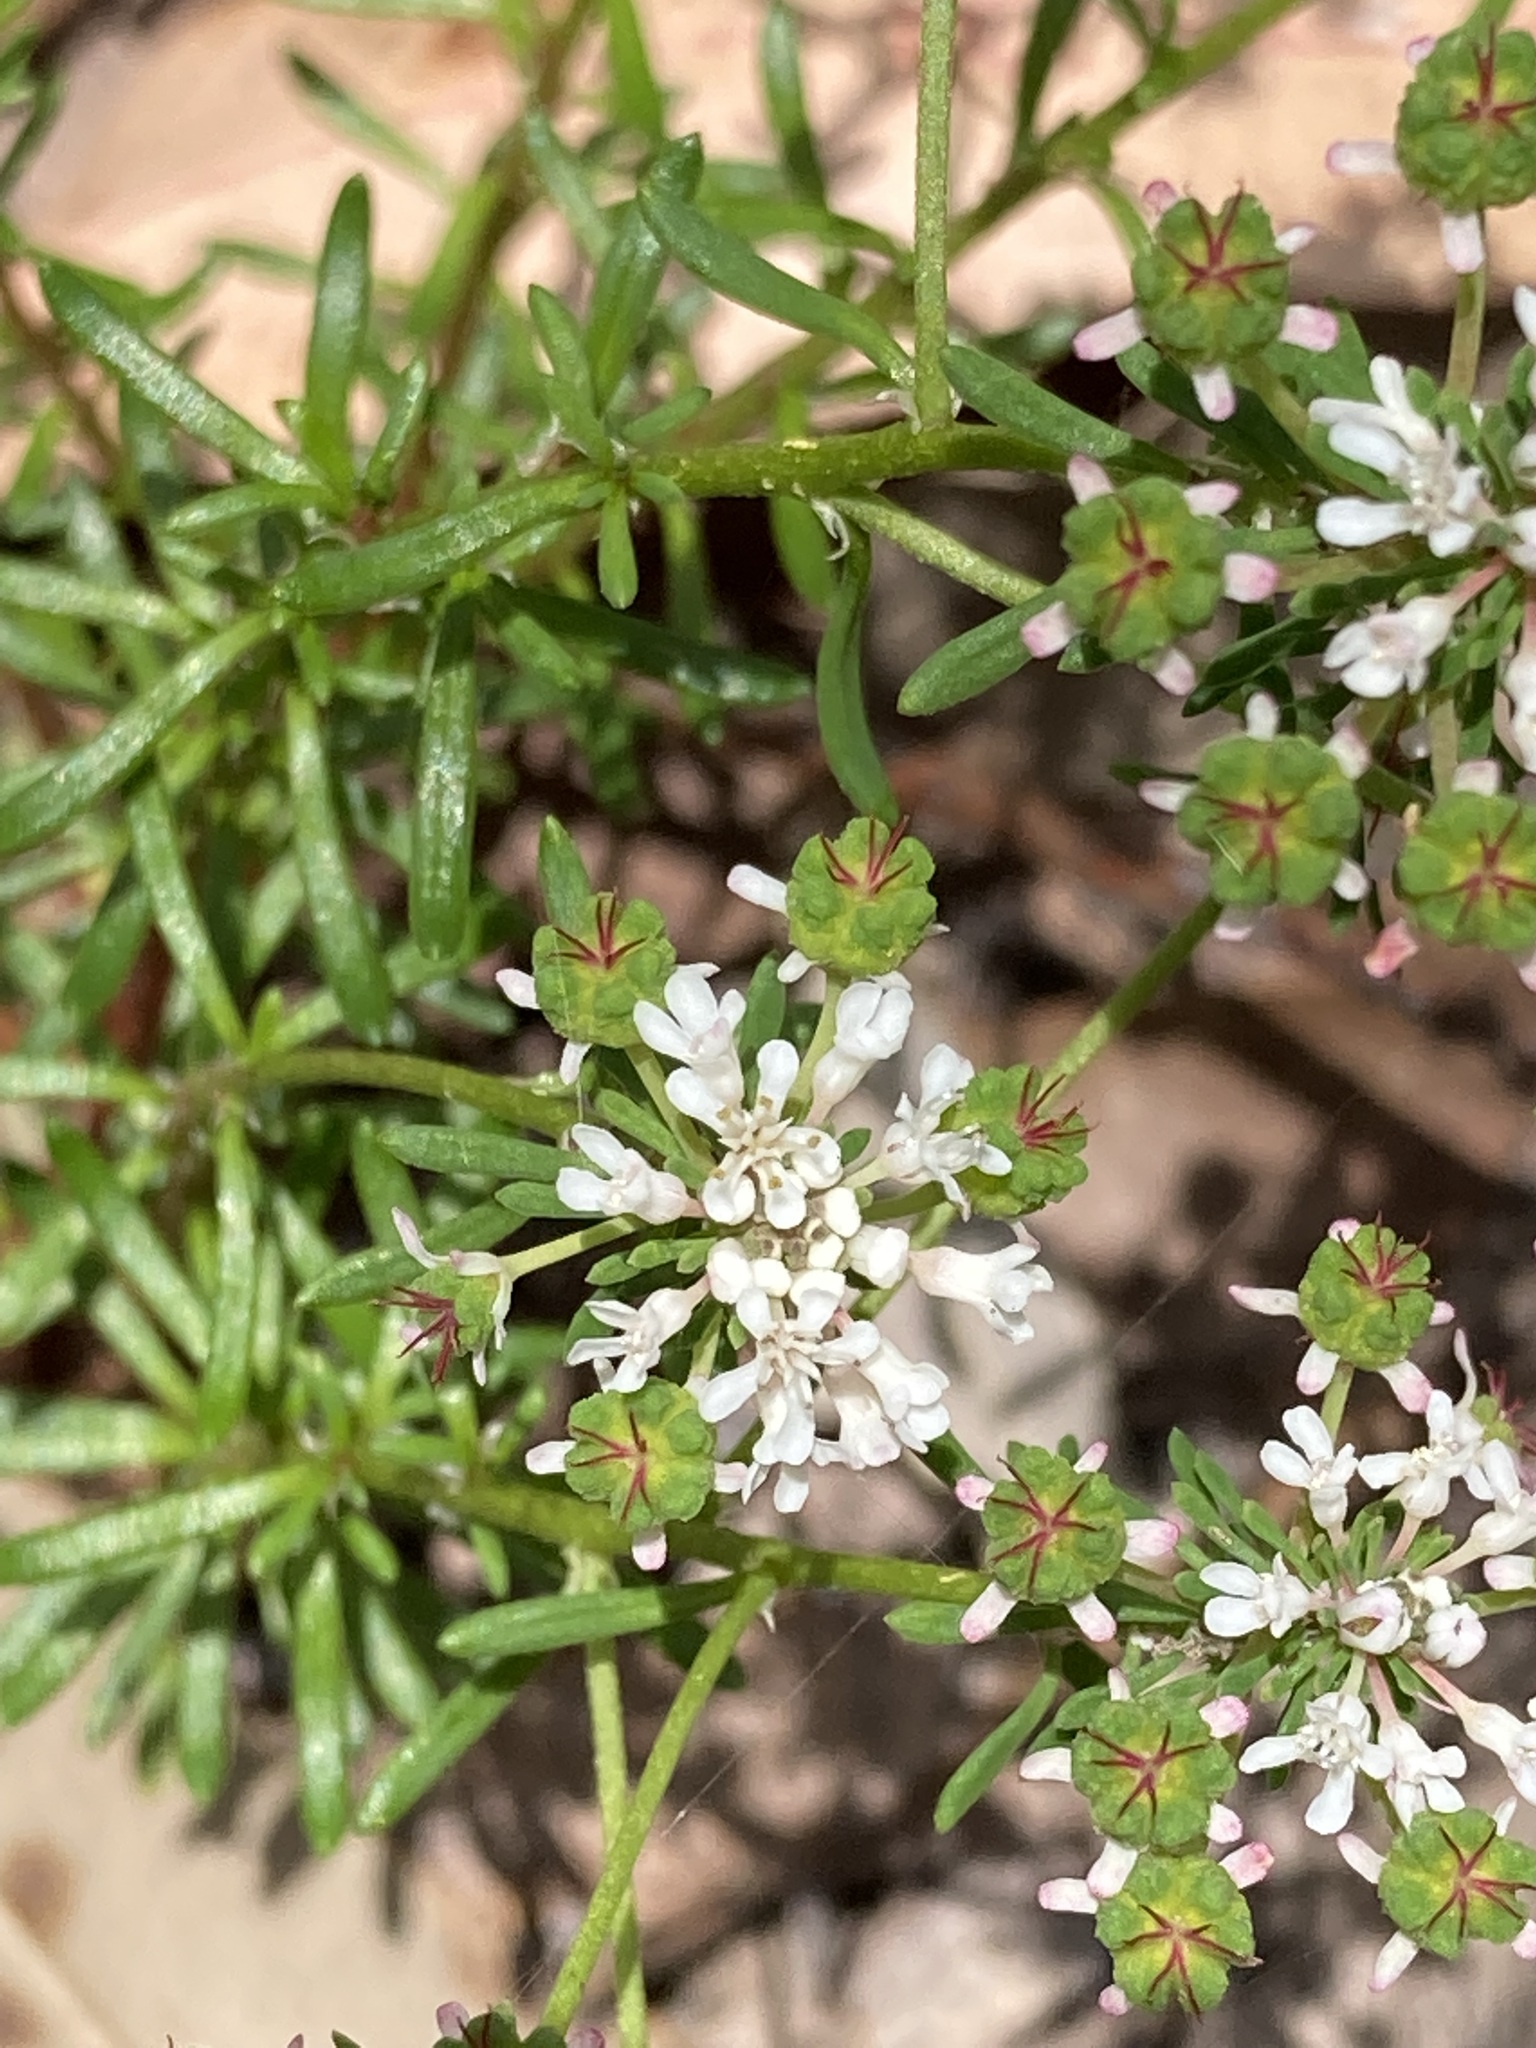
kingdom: Plantae
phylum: Tracheophyta
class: Magnoliopsida
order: Malpighiales
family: Phyllanthaceae
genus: Poranthera
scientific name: Poranthera ericifolia
